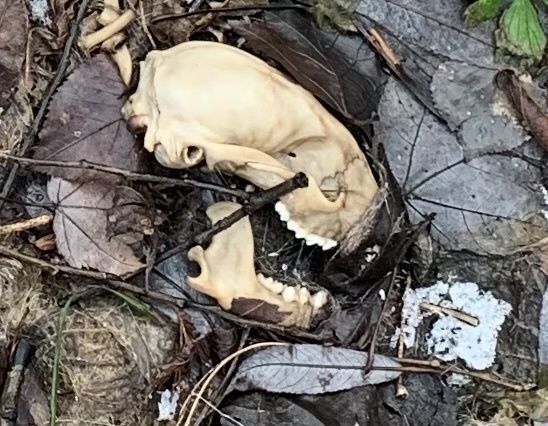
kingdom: Animalia
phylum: Chordata
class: Mammalia
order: Carnivora
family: Procyonidae
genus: Procyon
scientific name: Procyon lotor
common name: Raccoon
